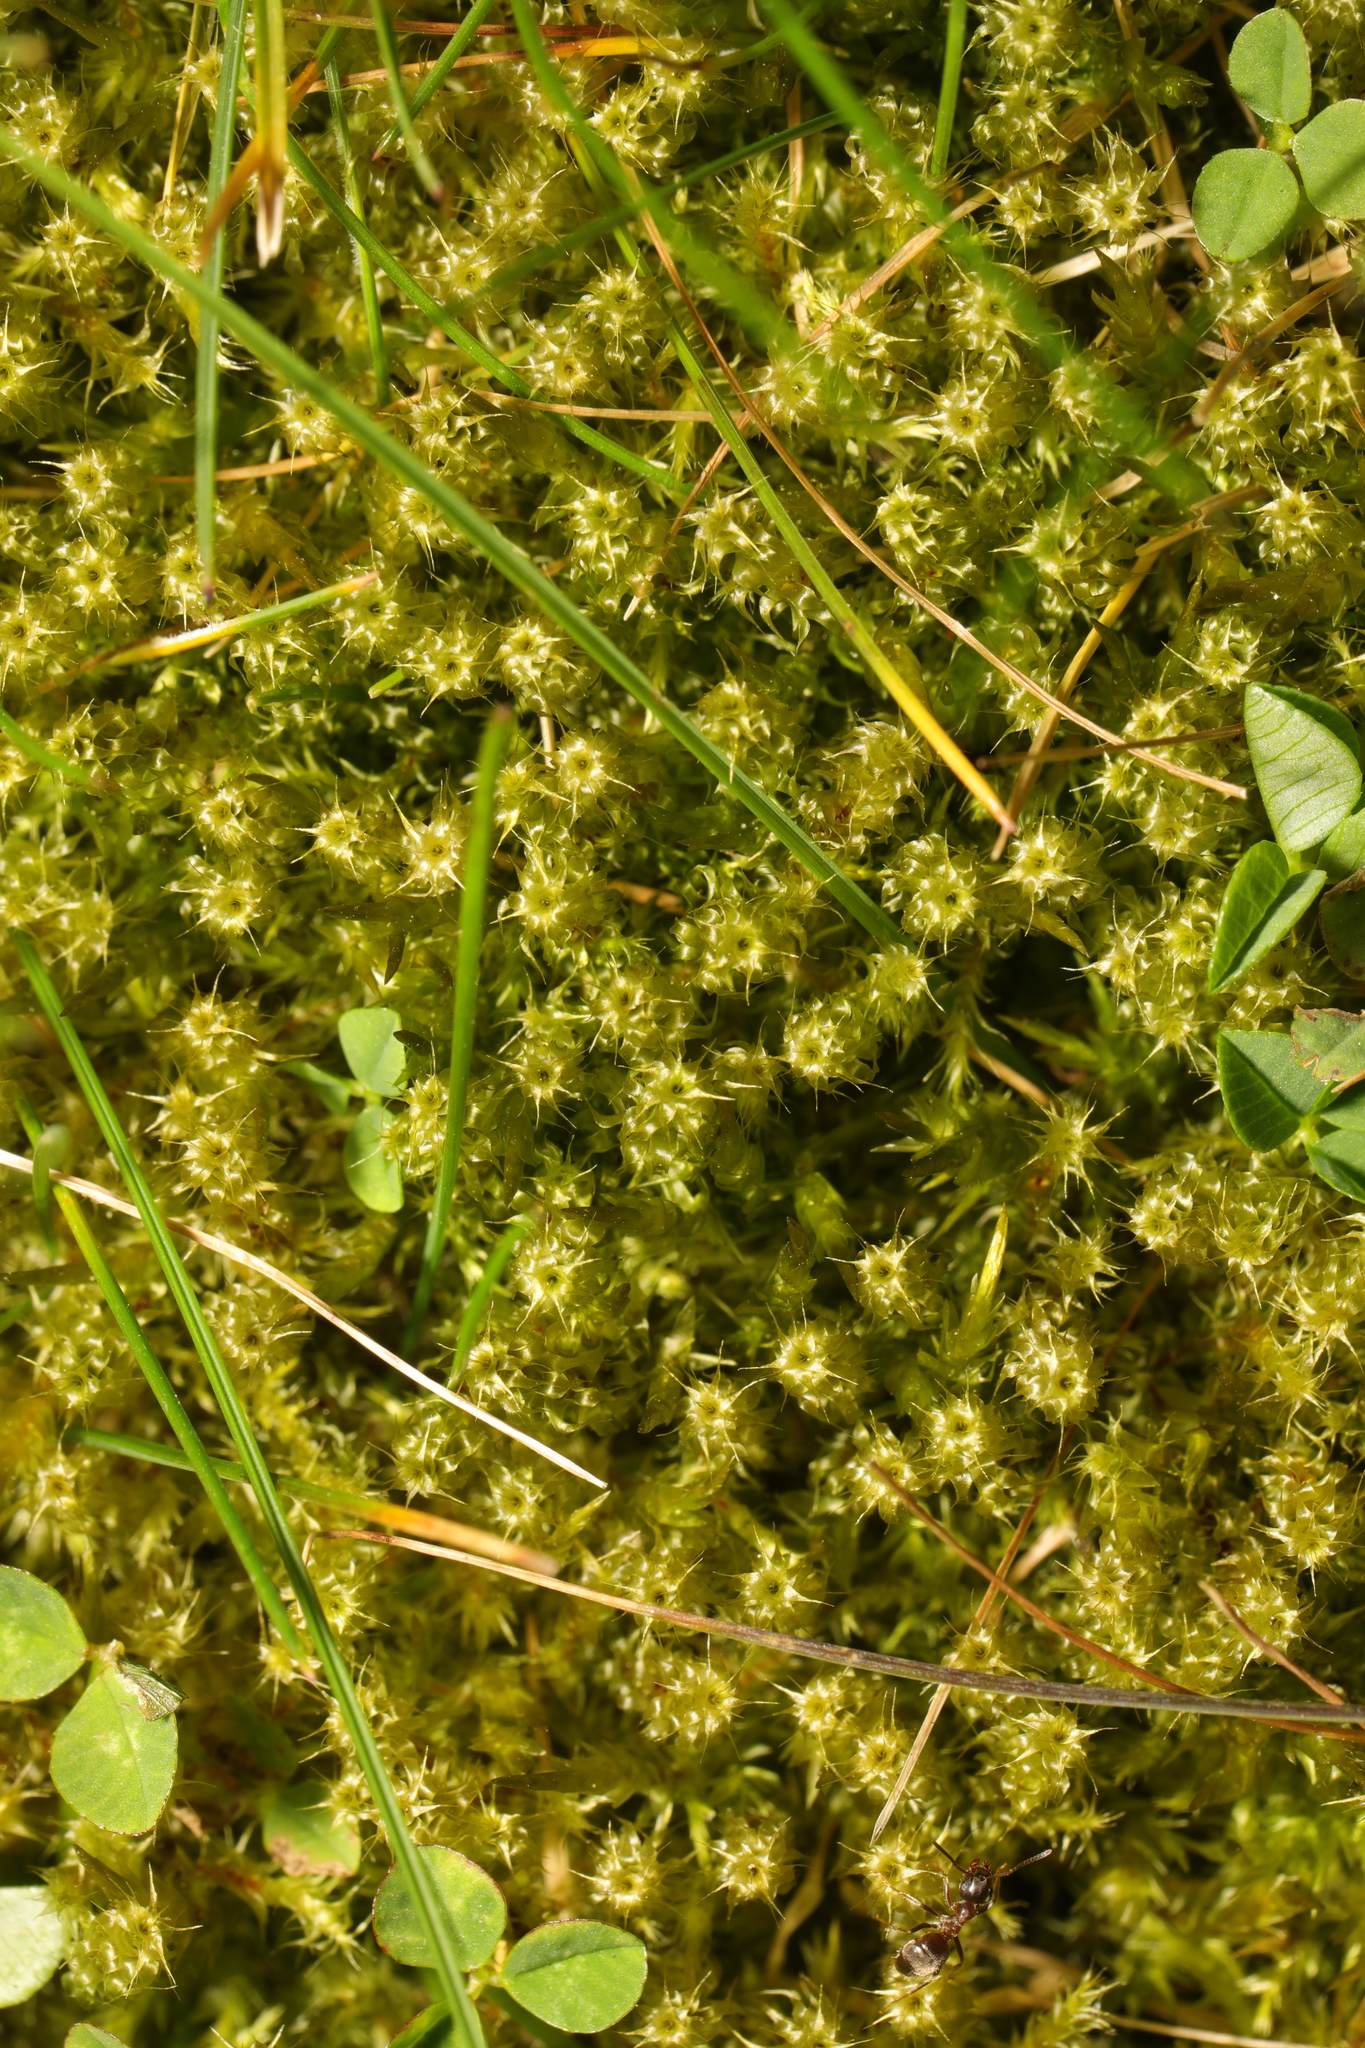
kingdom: Plantae
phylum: Bryophyta
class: Bryopsida
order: Hypnales
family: Hylocomiaceae
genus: Rhytidiadelphus
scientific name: Rhytidiadelphus squarrosus
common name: Springy turf-moss
